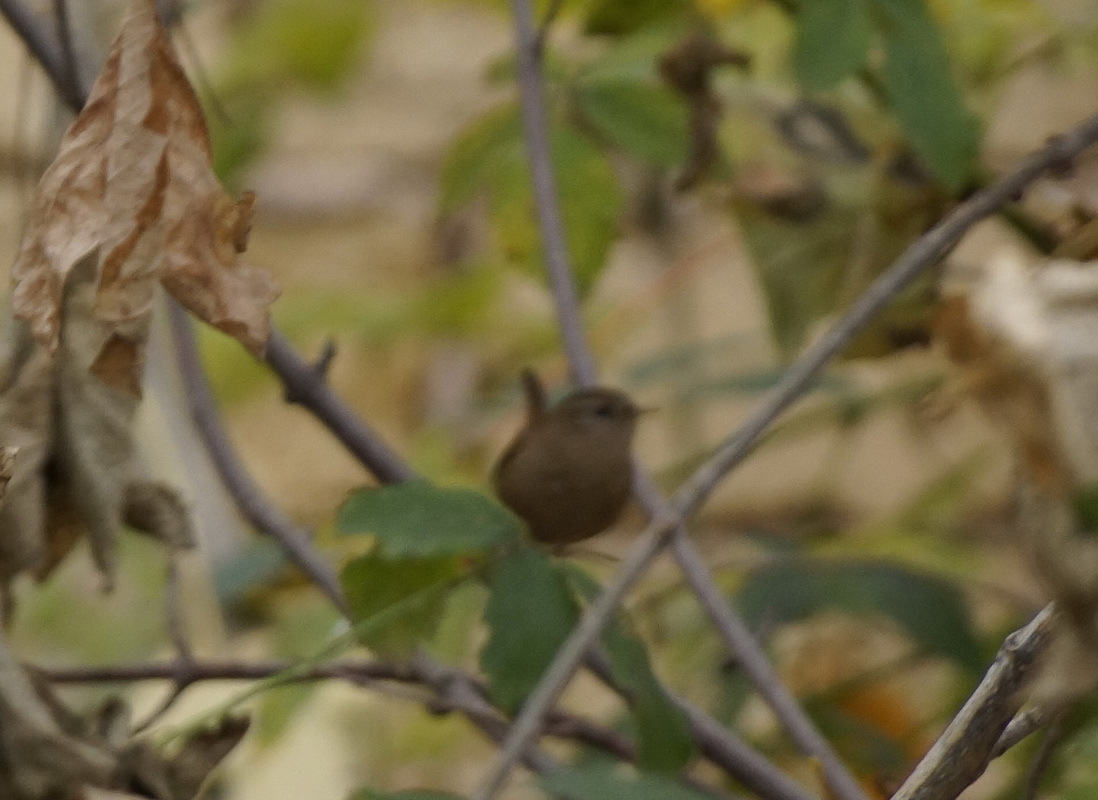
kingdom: Animalia
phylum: Chordata
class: Aves
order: Passeriformes
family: Troglodytidae
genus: Troglodytes
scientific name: Troglodytes troglodytes
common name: Eurasian wren
